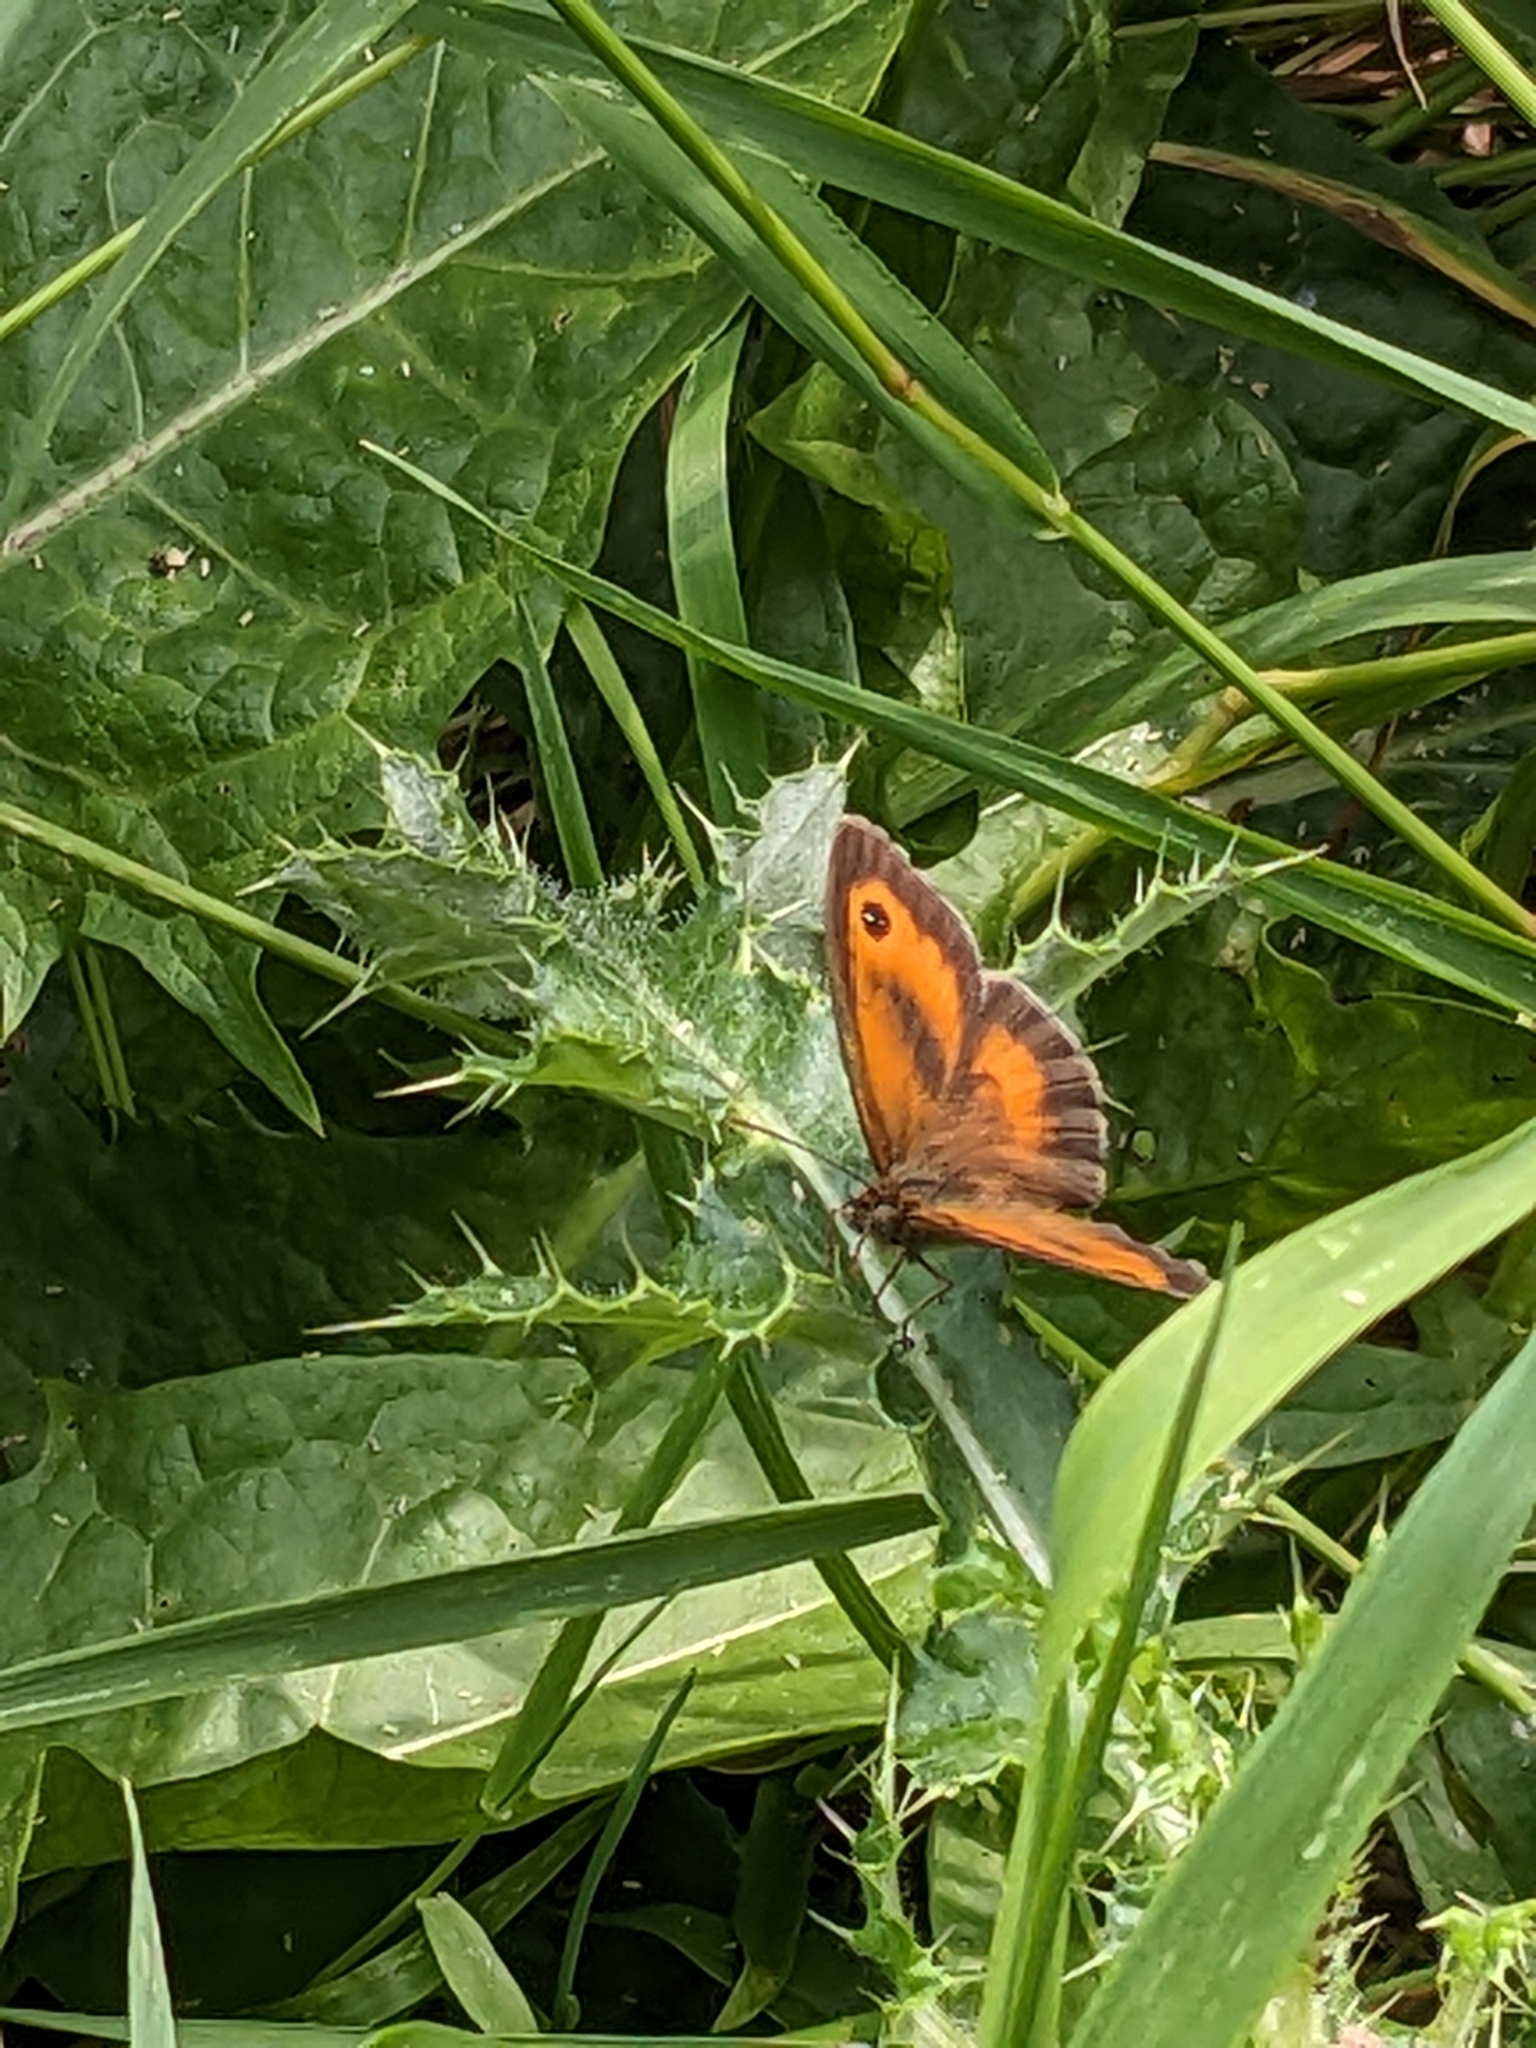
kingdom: Animalia
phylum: Arthropoda
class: Insecta
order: Lepidoptera
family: Nymphalidae
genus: Pyronia
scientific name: Pyronia tithonus
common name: Gatekeeper
